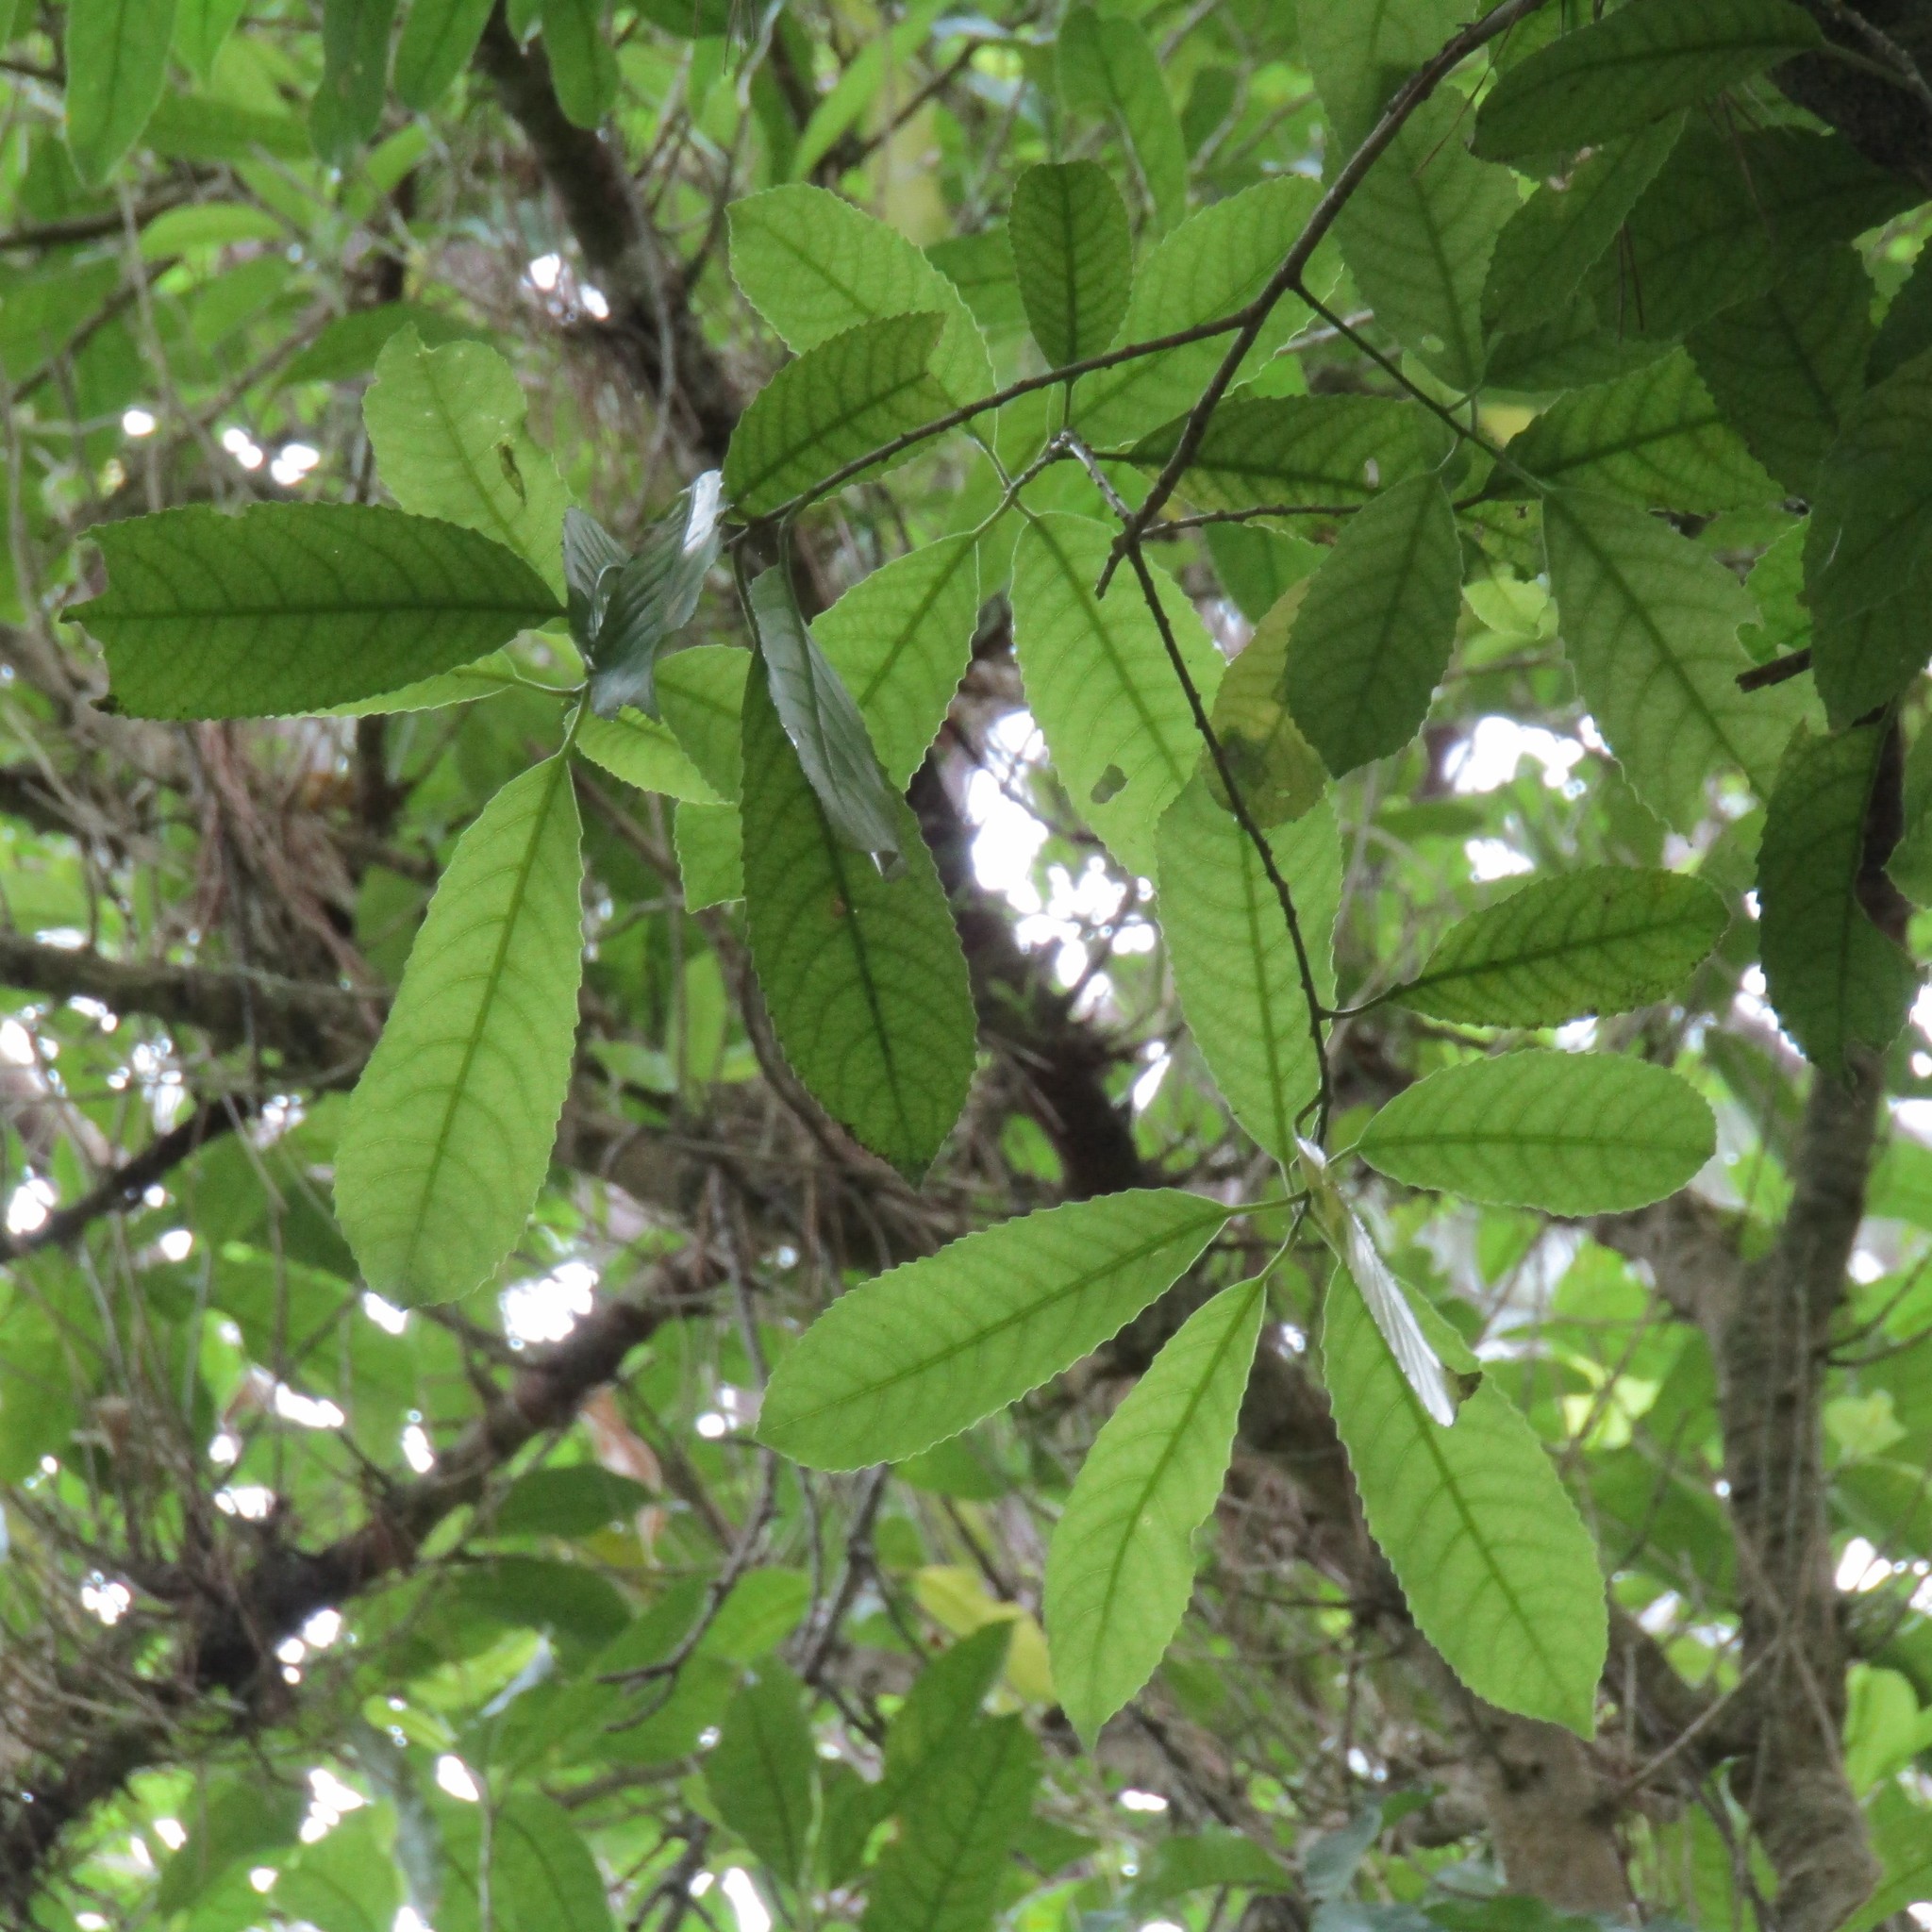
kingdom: Plantae
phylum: Tracheophyta
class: Magnoliopsida
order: Malpighiales
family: Violaceae
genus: Melicytus
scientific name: Melicytus ramiflorus
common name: Mahoe
